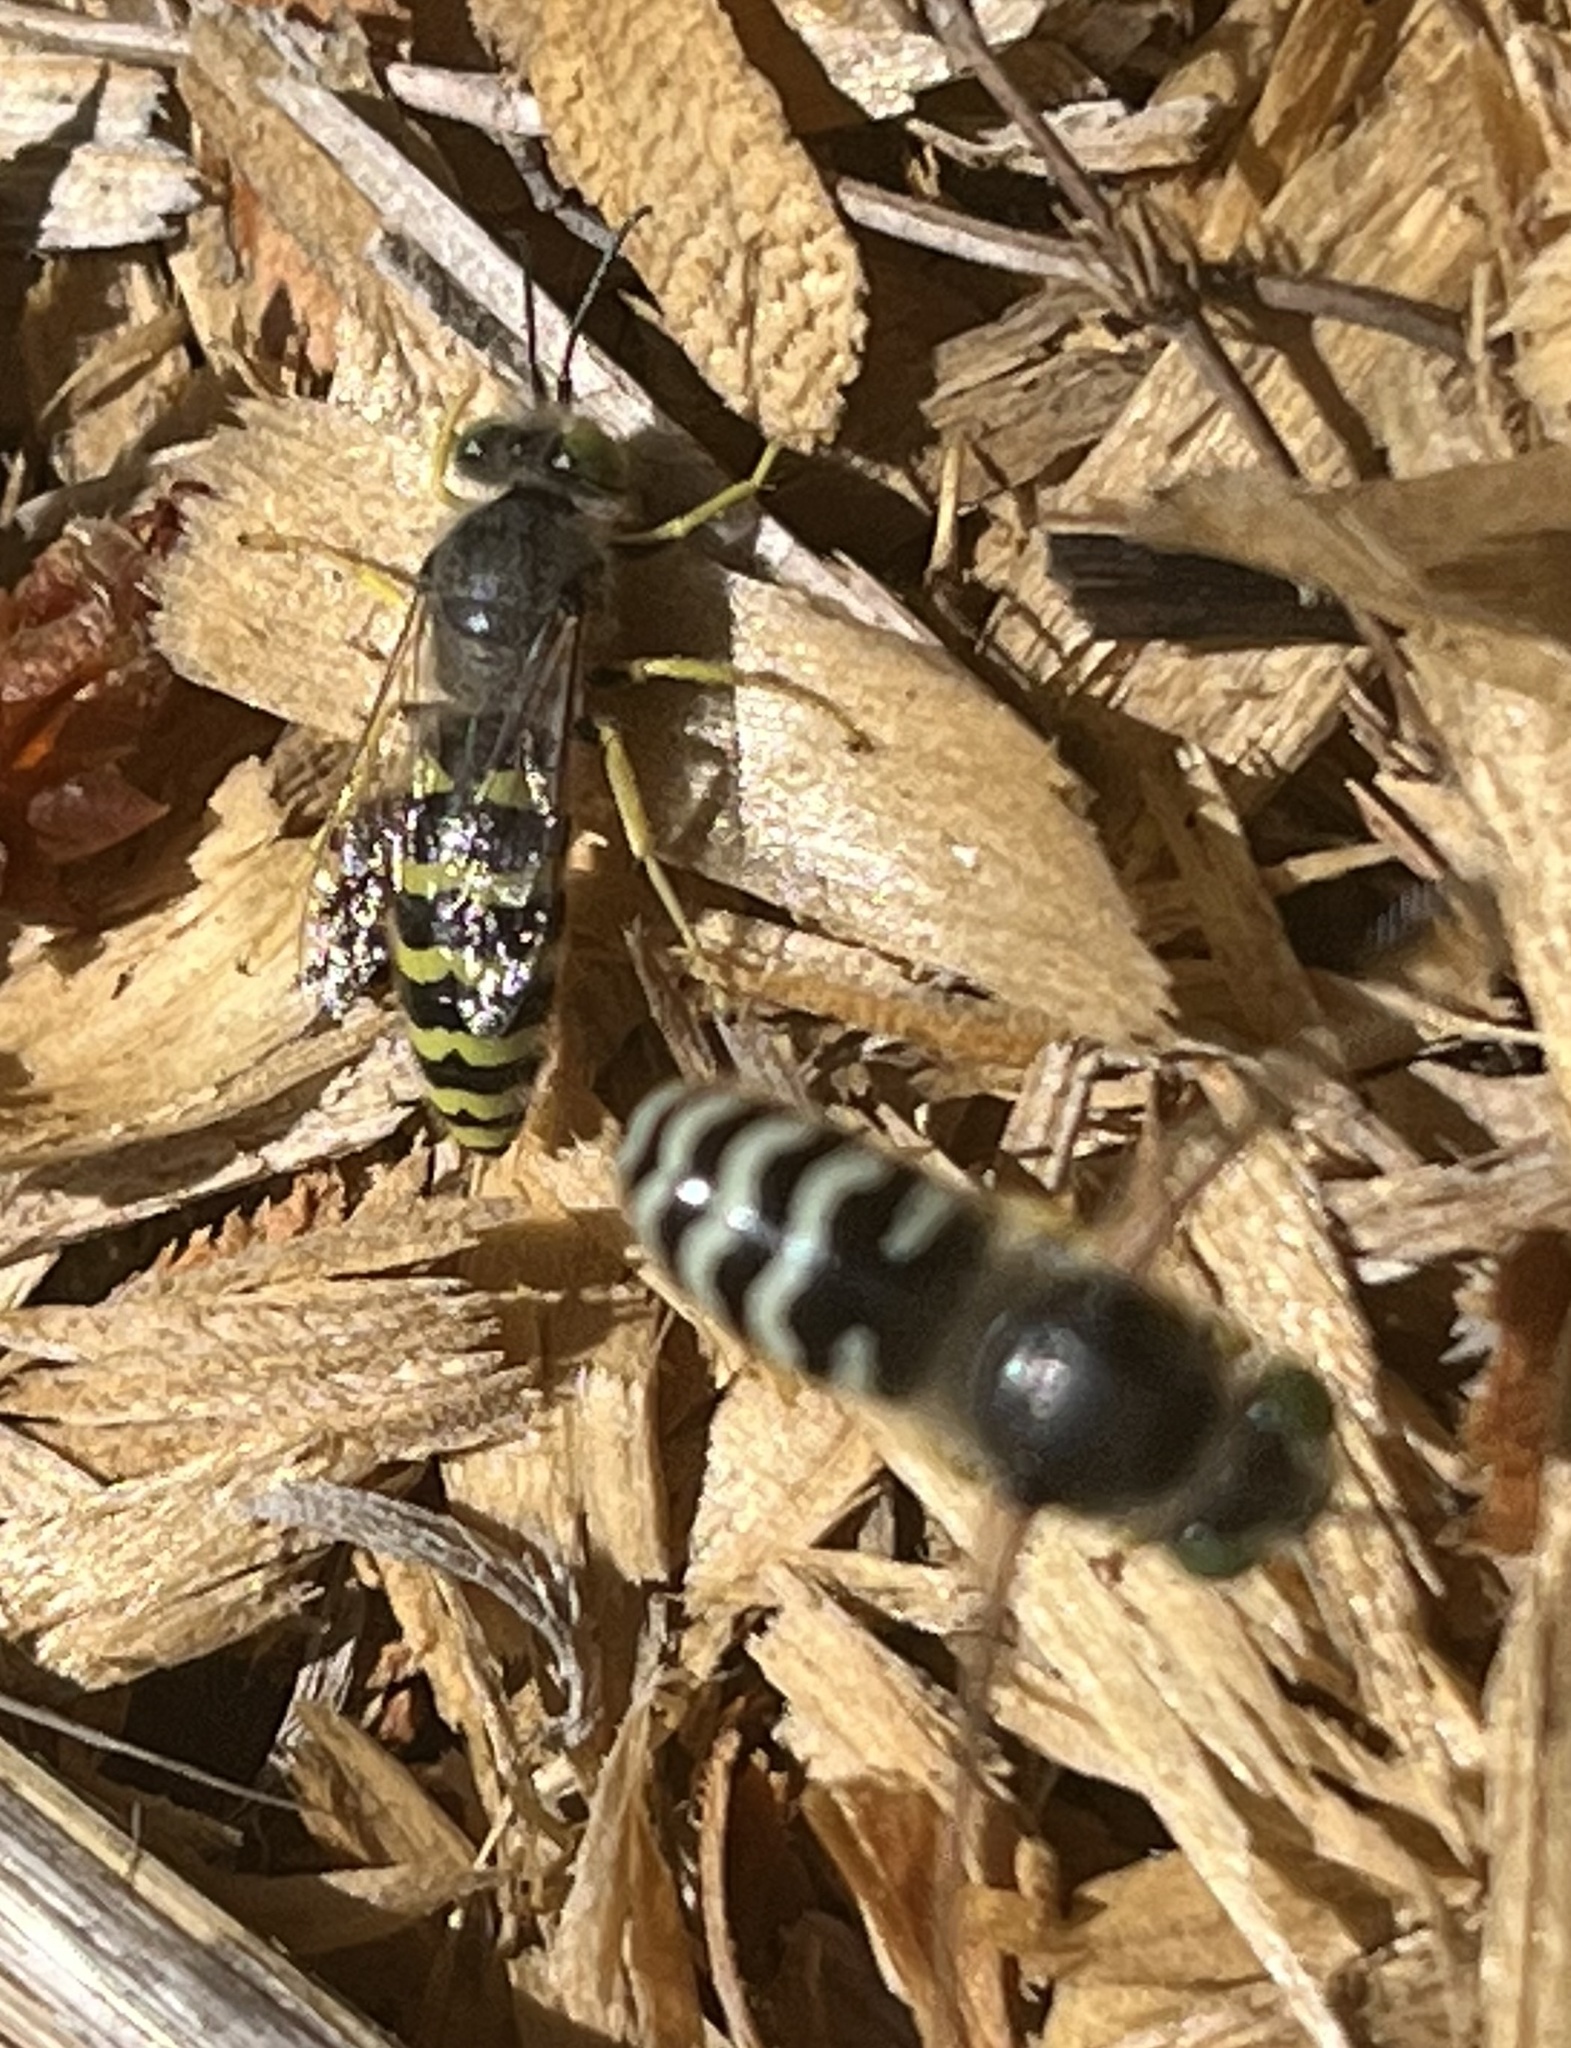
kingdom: Animalia
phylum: Arthropoda
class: Insecta
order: Hymenoptera
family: Crabronidae
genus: Bembix
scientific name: Bembix americana
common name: American sand wasp
